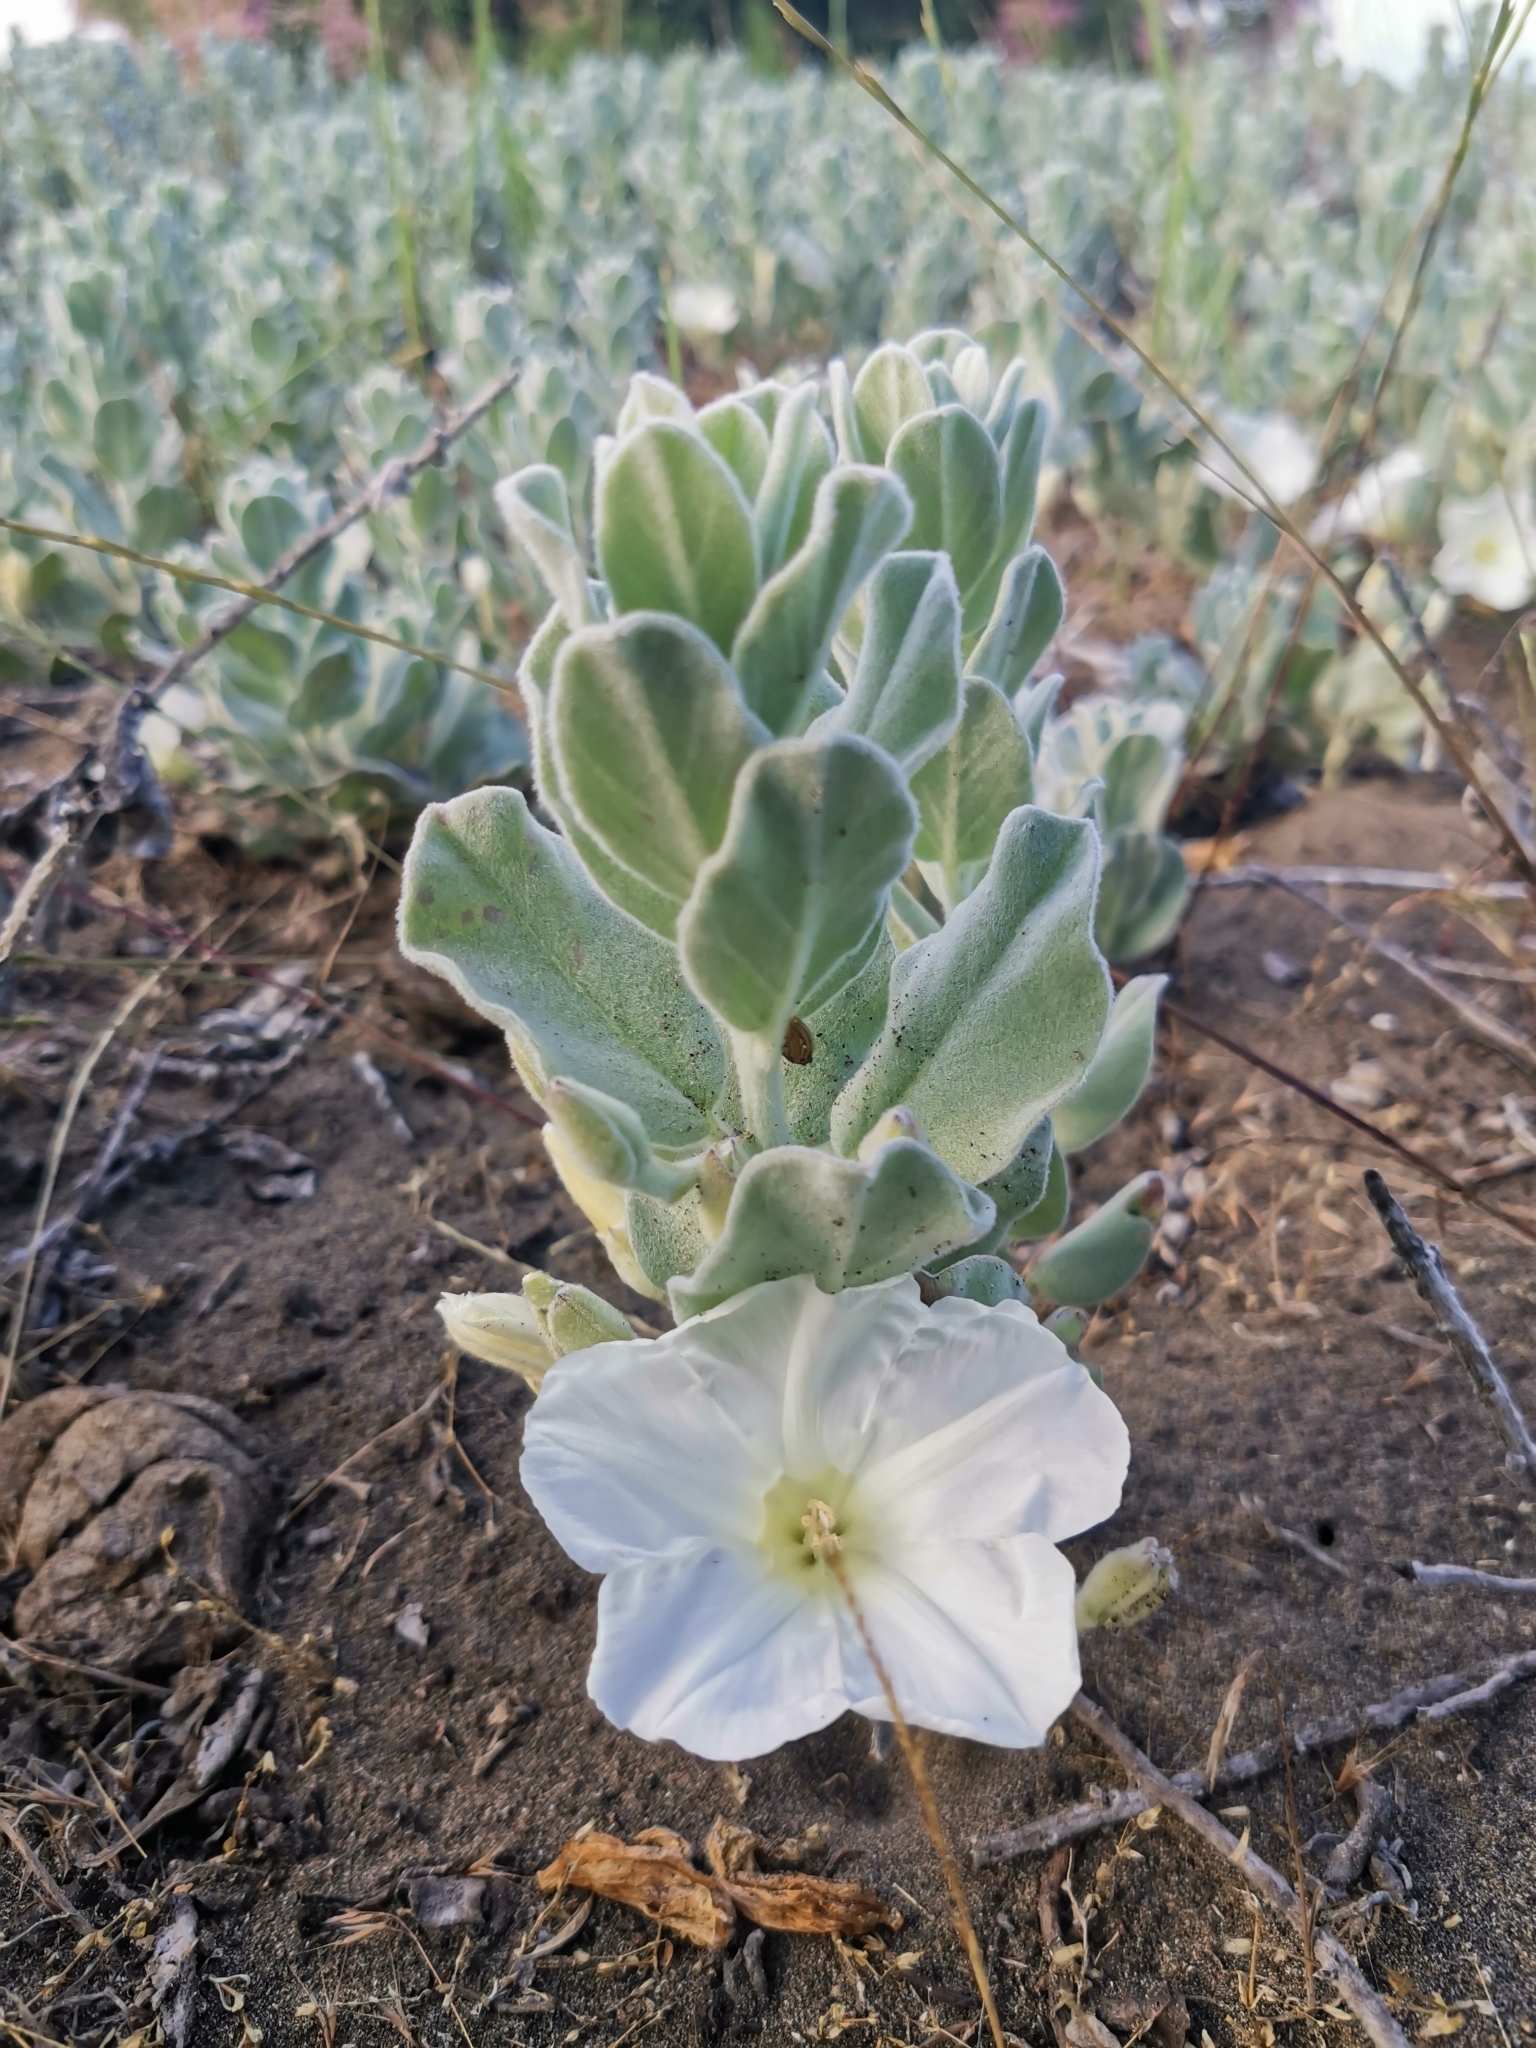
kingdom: Plantae
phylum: Tracheophyta
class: Magnoliopsida
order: Solanales
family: Convolvulaceae
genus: Convolvulus
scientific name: Convolvulus persicus
